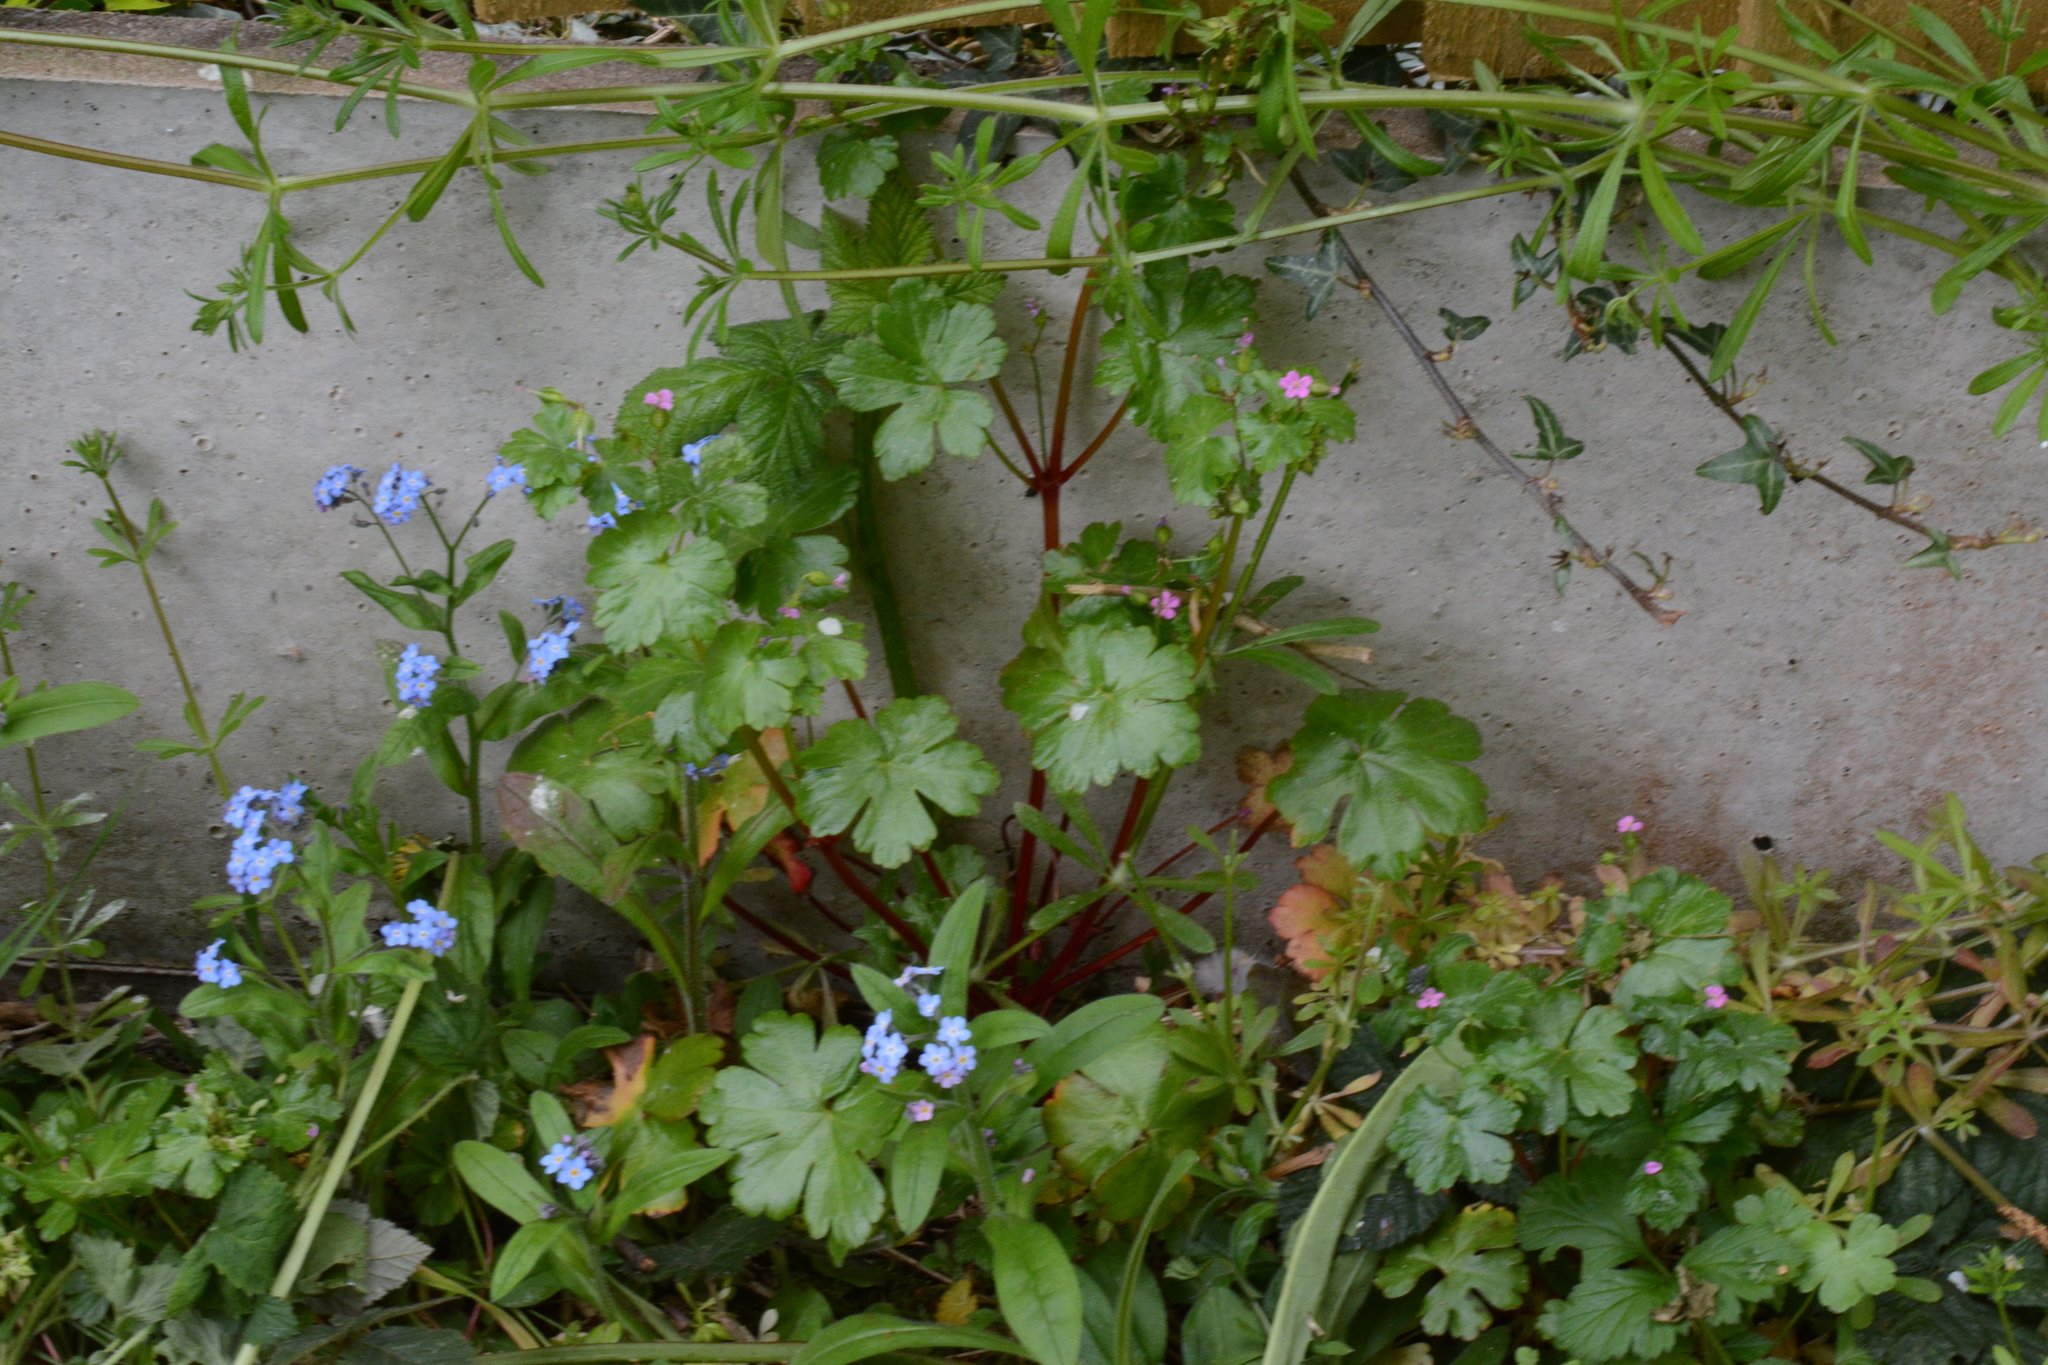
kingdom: Plantae
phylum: Tracheophyta
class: Magnoliopsida
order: Geraniales
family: Geraniaceae
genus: Geranium
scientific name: Geranium lucidum
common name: Shining crane's-bill
